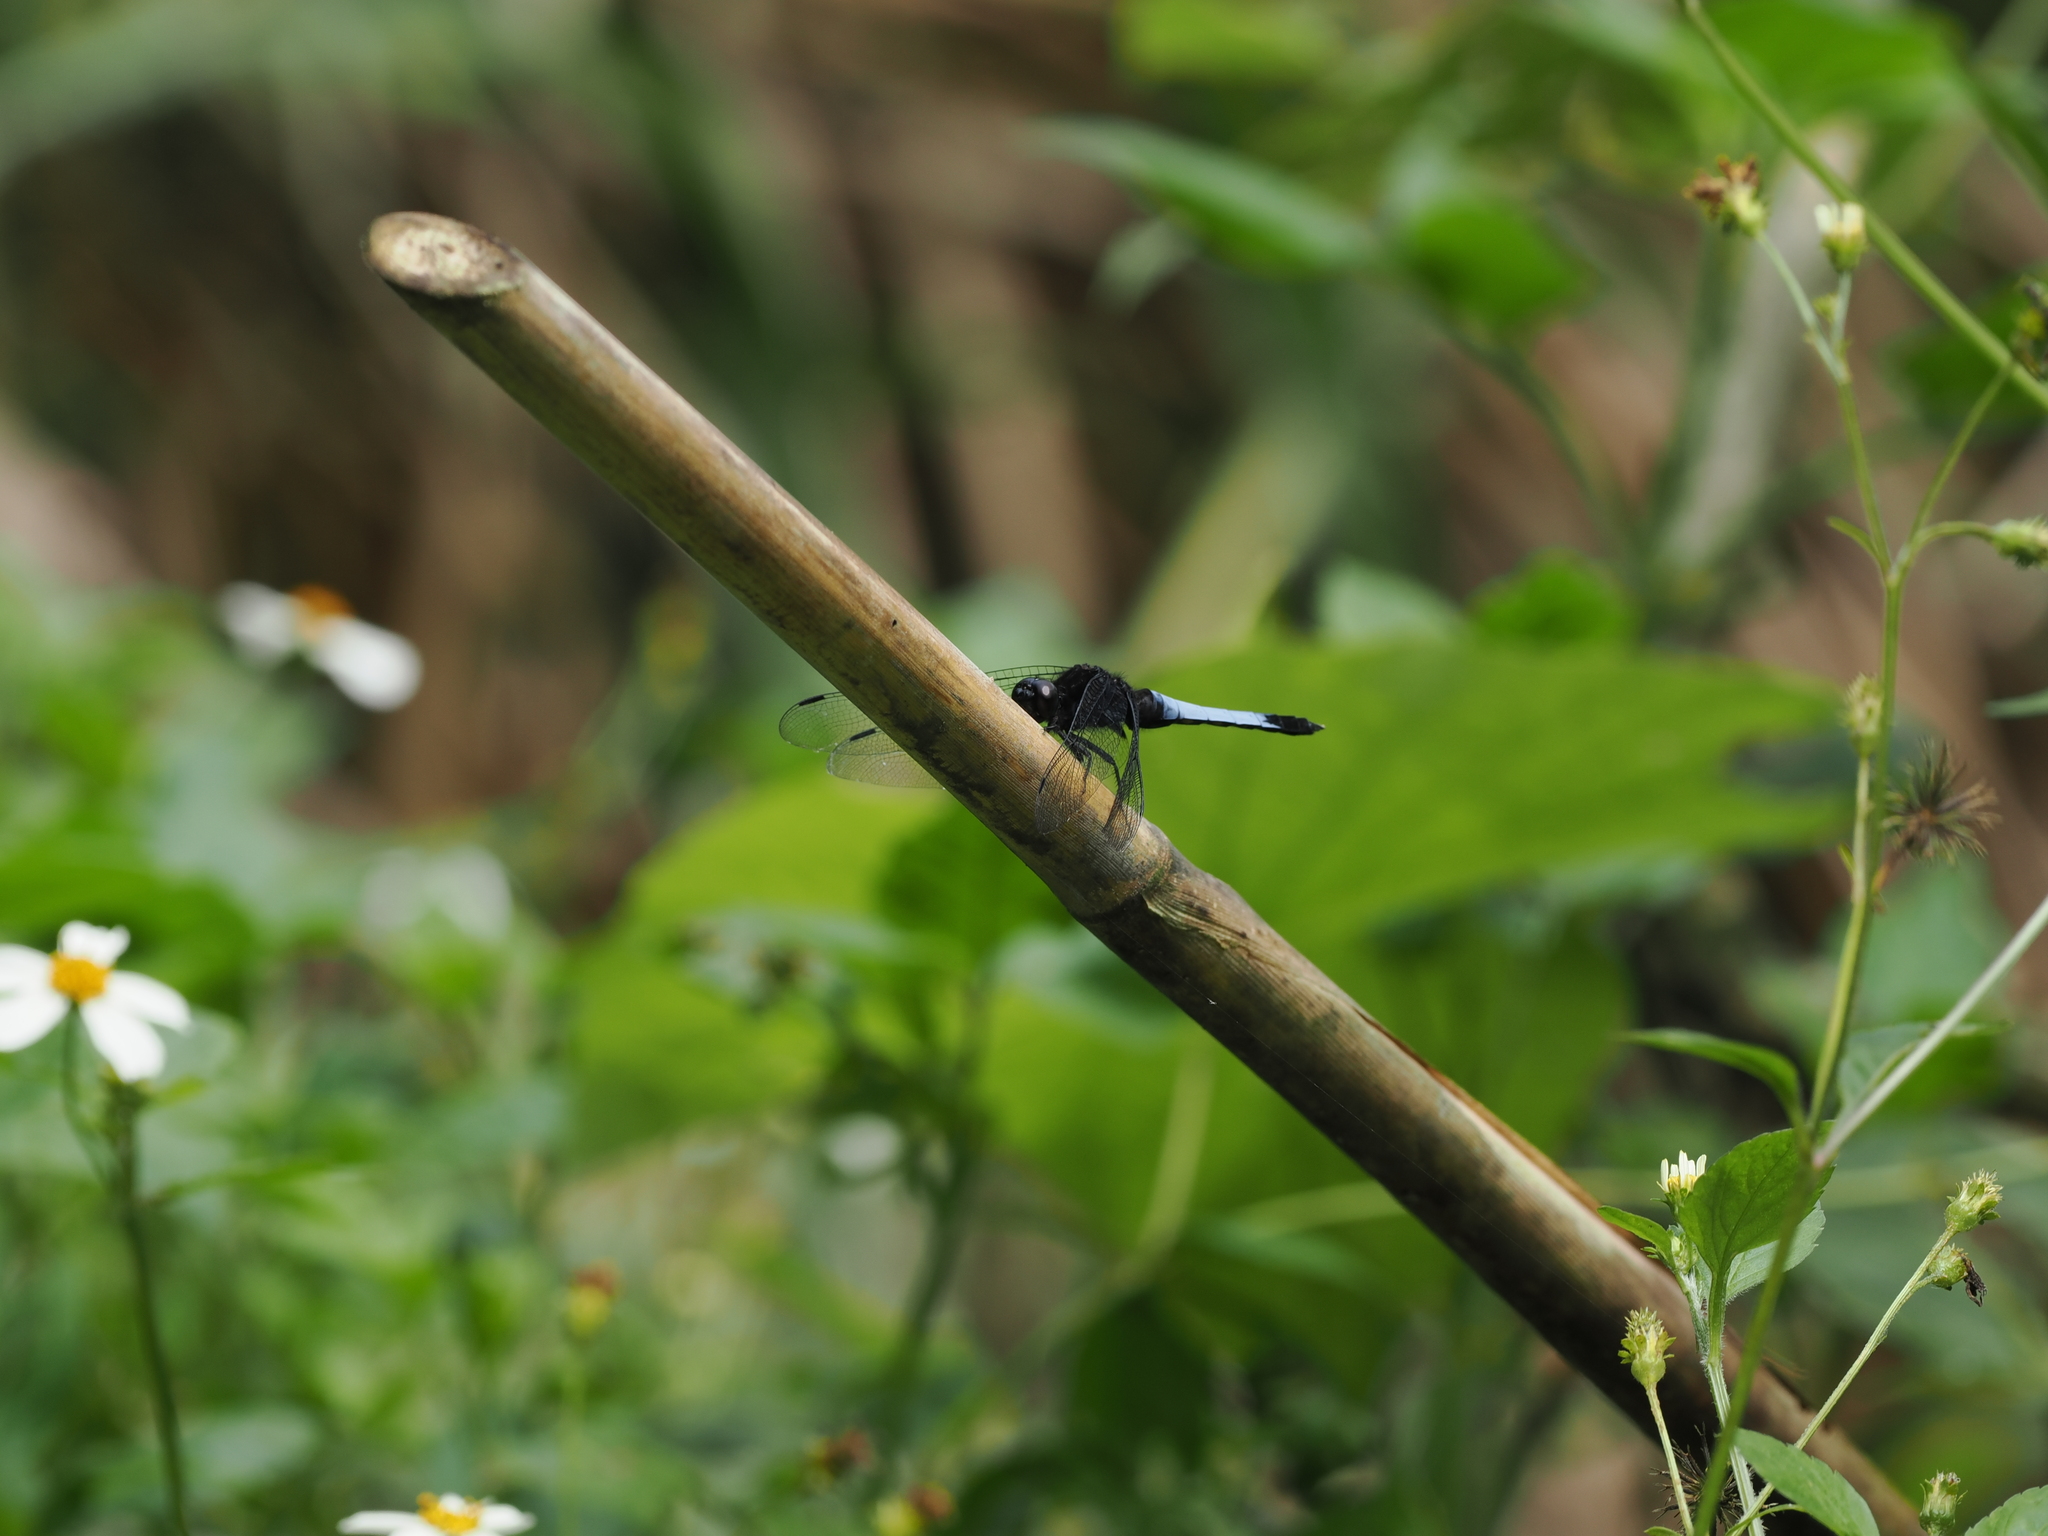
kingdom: Animalia
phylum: Arthropoda
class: Insecta
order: Odonata
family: Libellulidae
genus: Orthetrum
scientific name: Orthetrum triangulare
